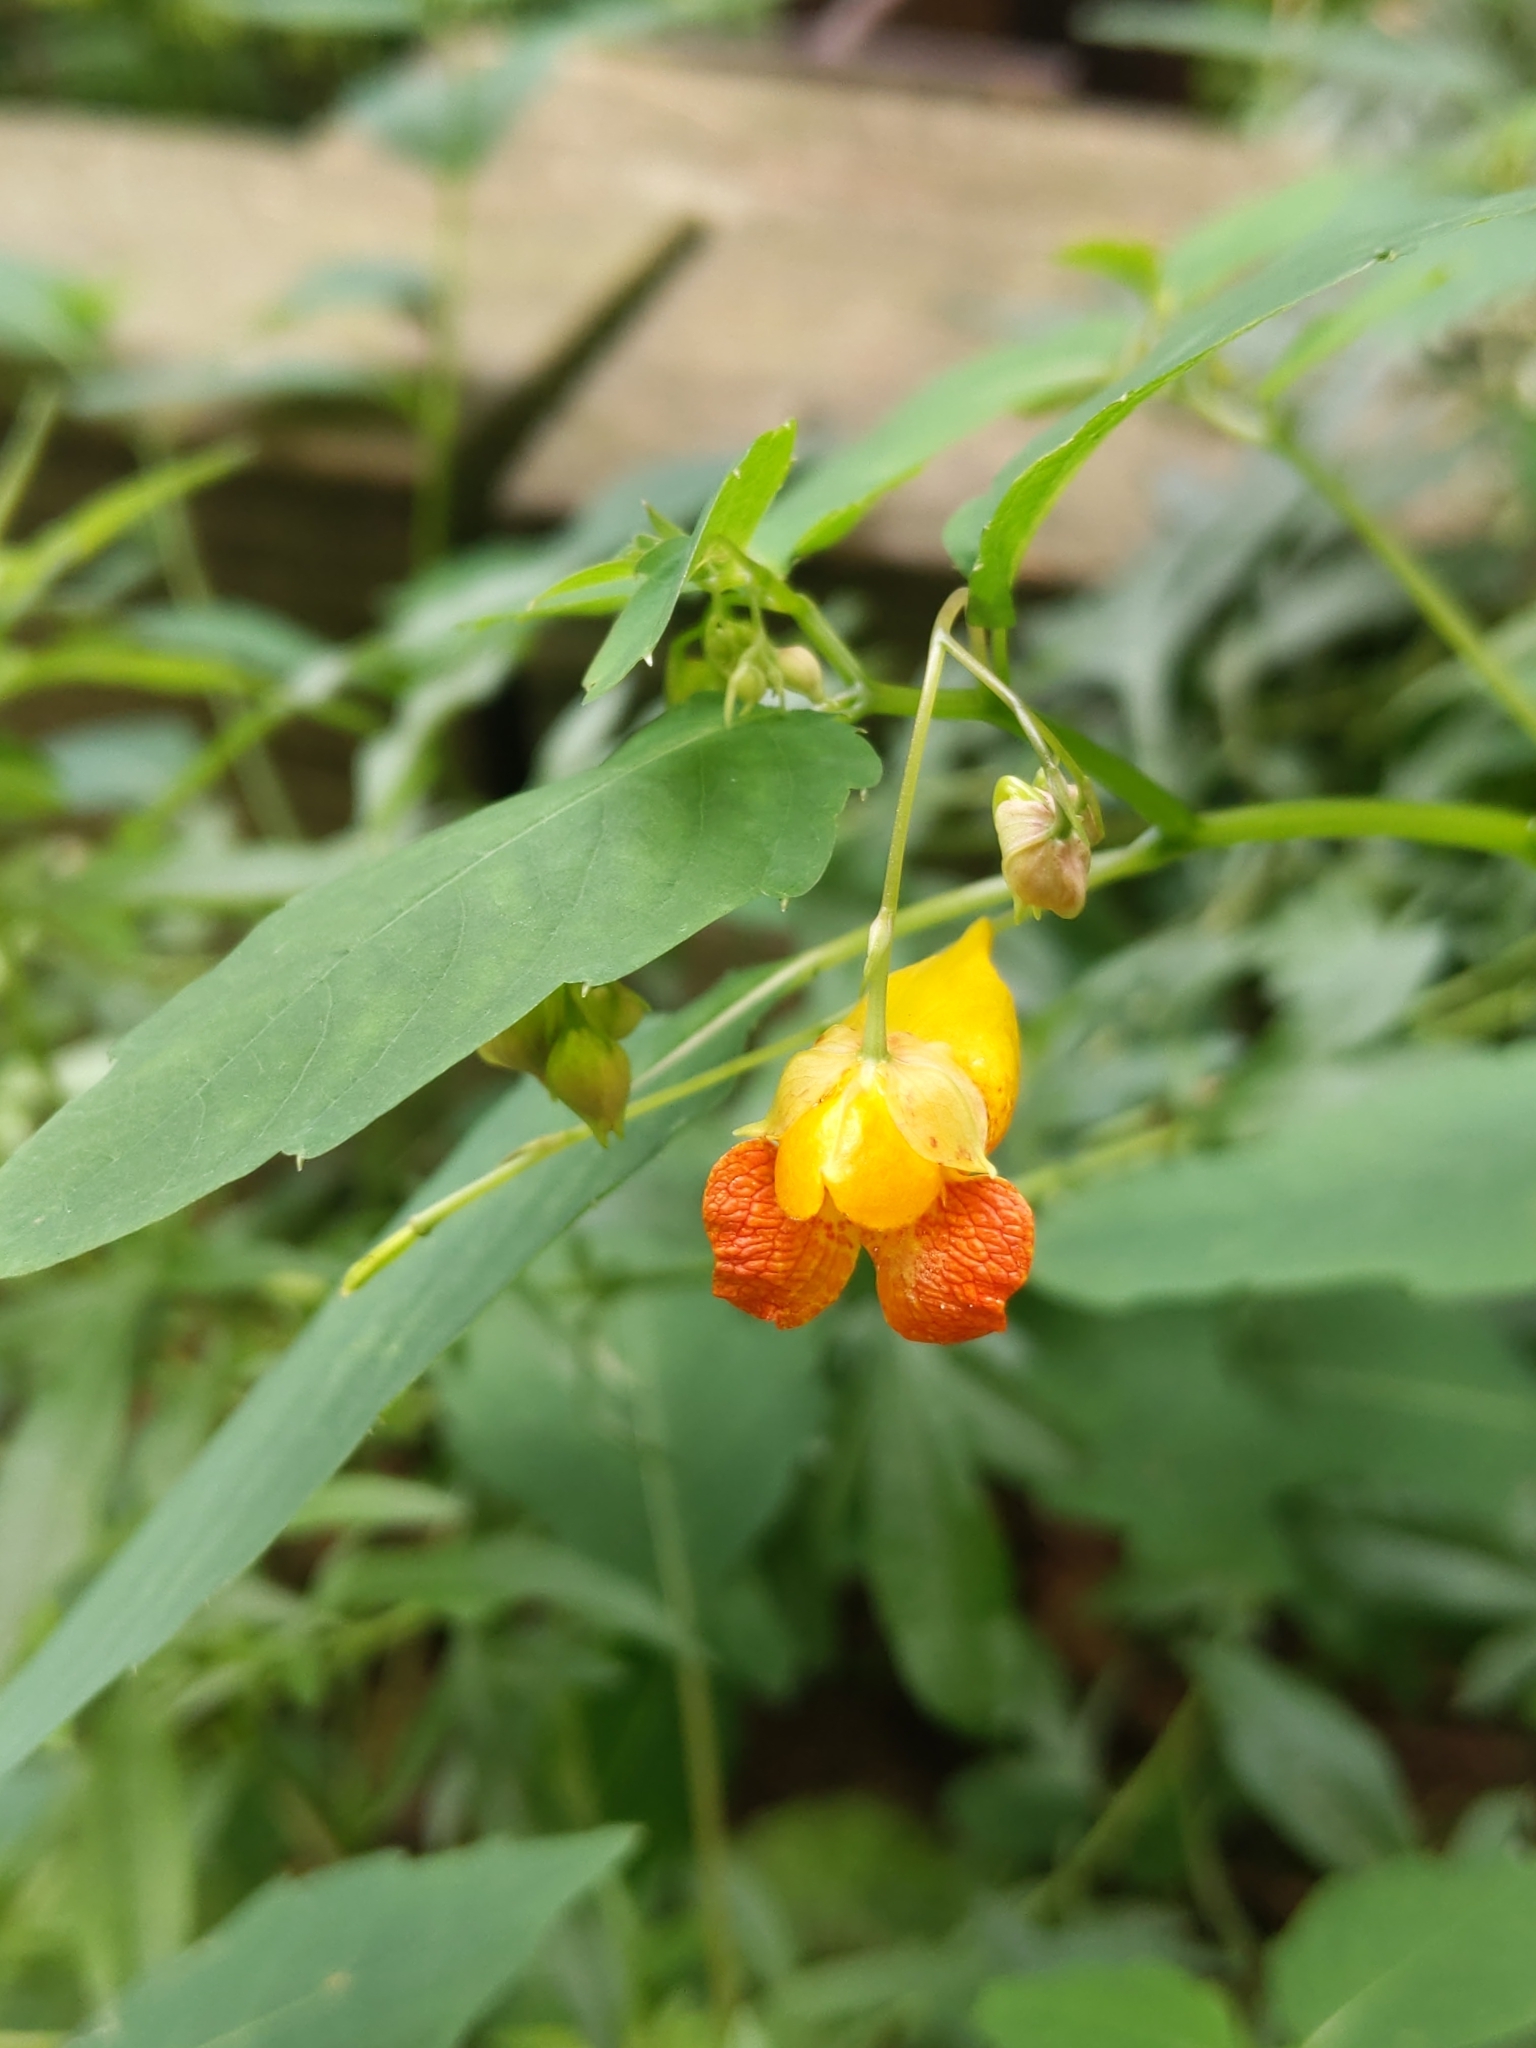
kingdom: Plantae
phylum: Tracheophyta
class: Magnoliopsida
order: Ericales
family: Balsaminaceae
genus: Impatiens
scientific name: Impatiens capensis
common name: Orange balsam
